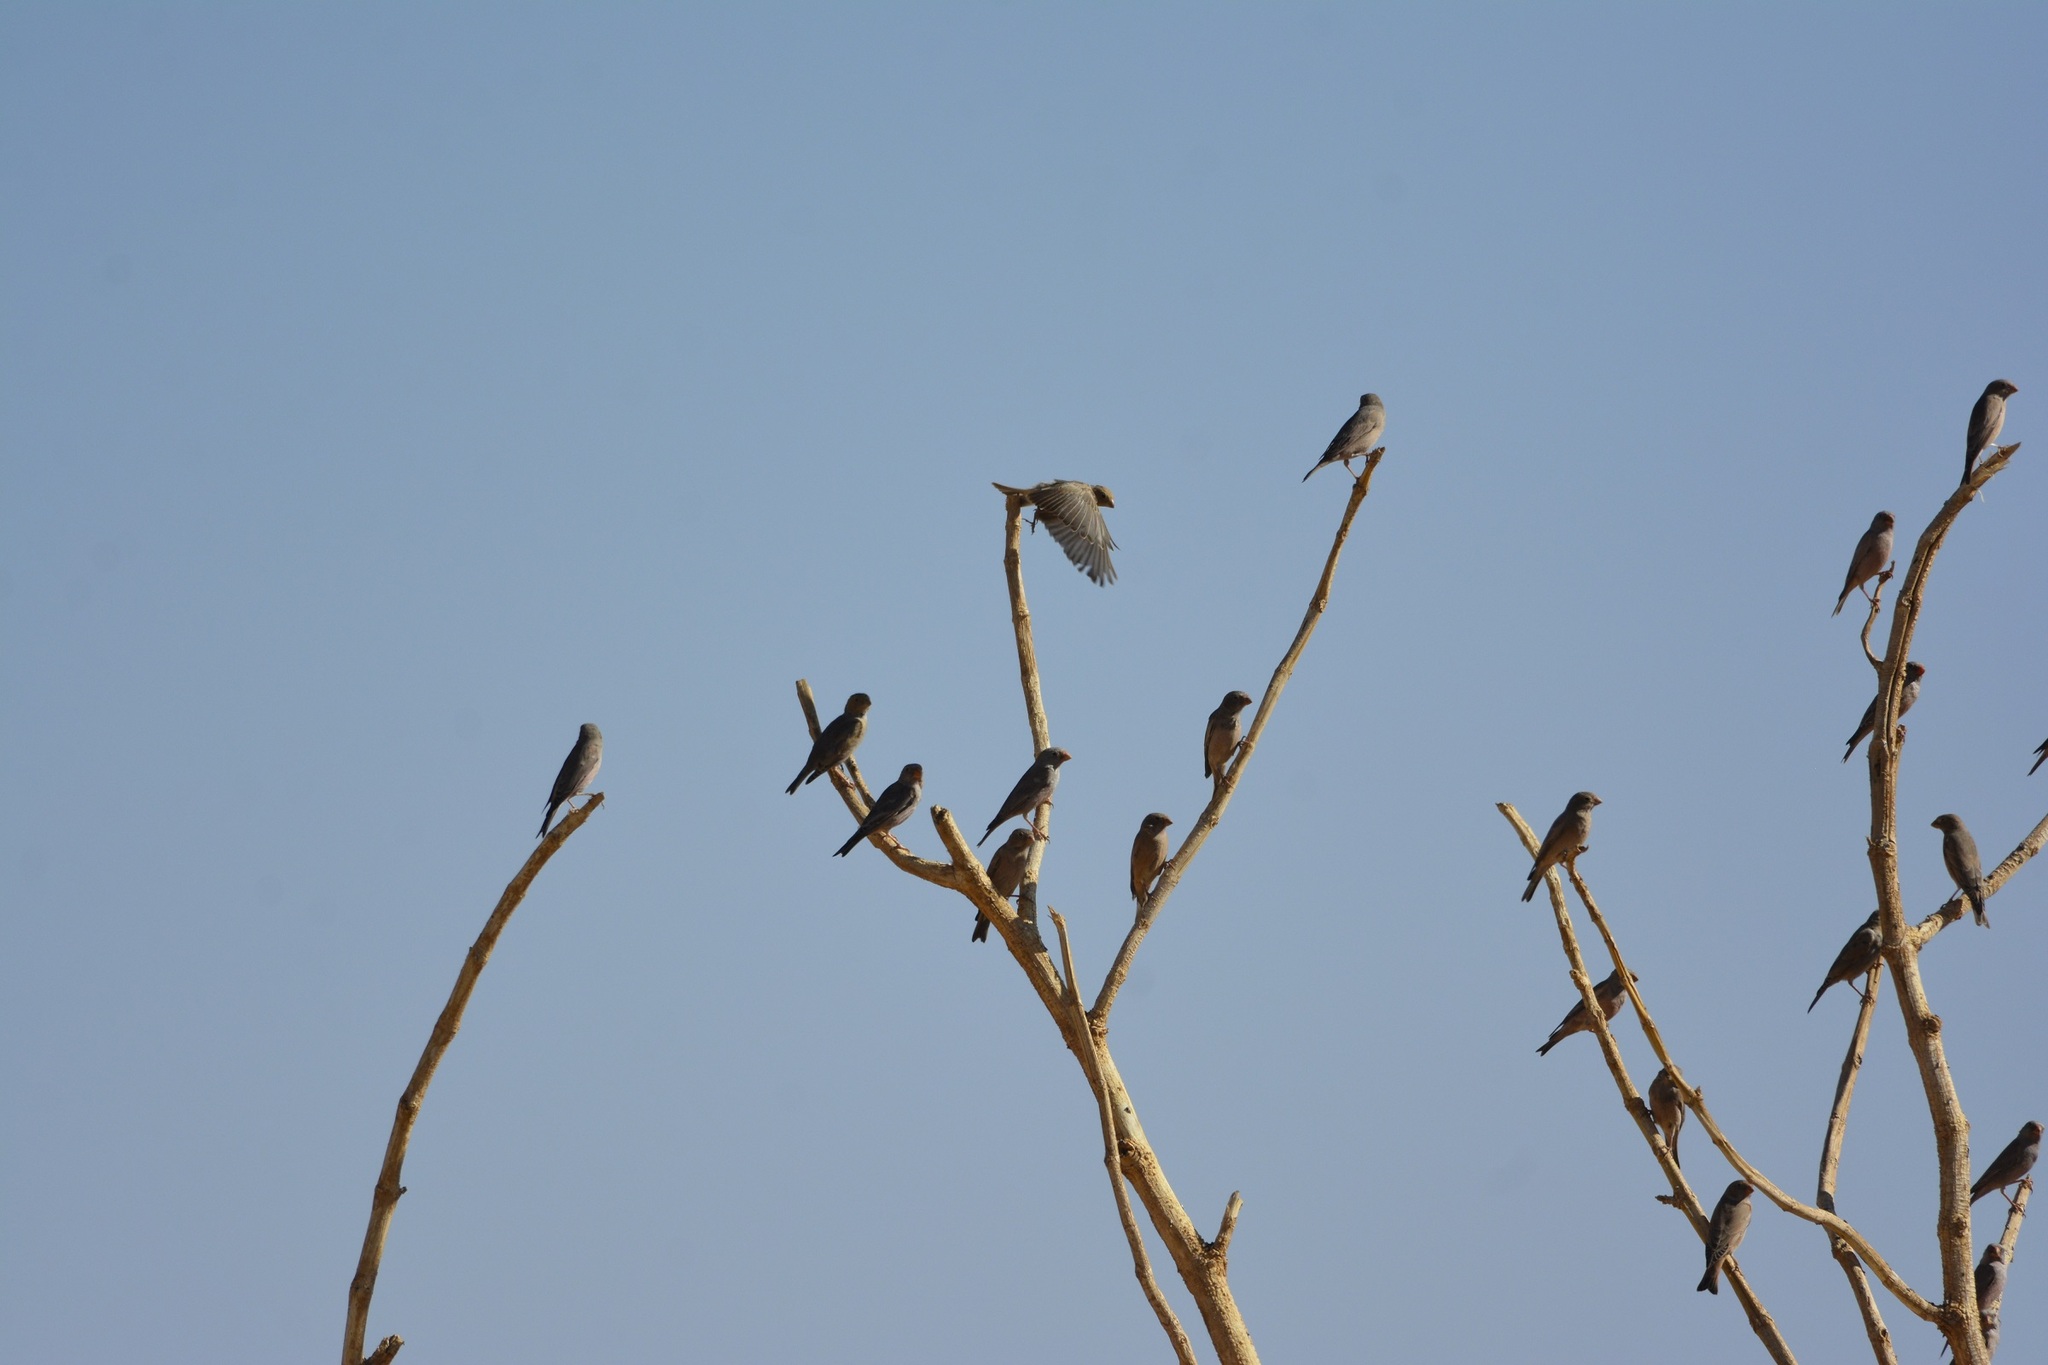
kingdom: Animalia
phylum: Chordata
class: Aves
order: Passeriformes
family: Fringillidae
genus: Bucanetes
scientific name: Bucanetes githagineus
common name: Trumpeter finch
